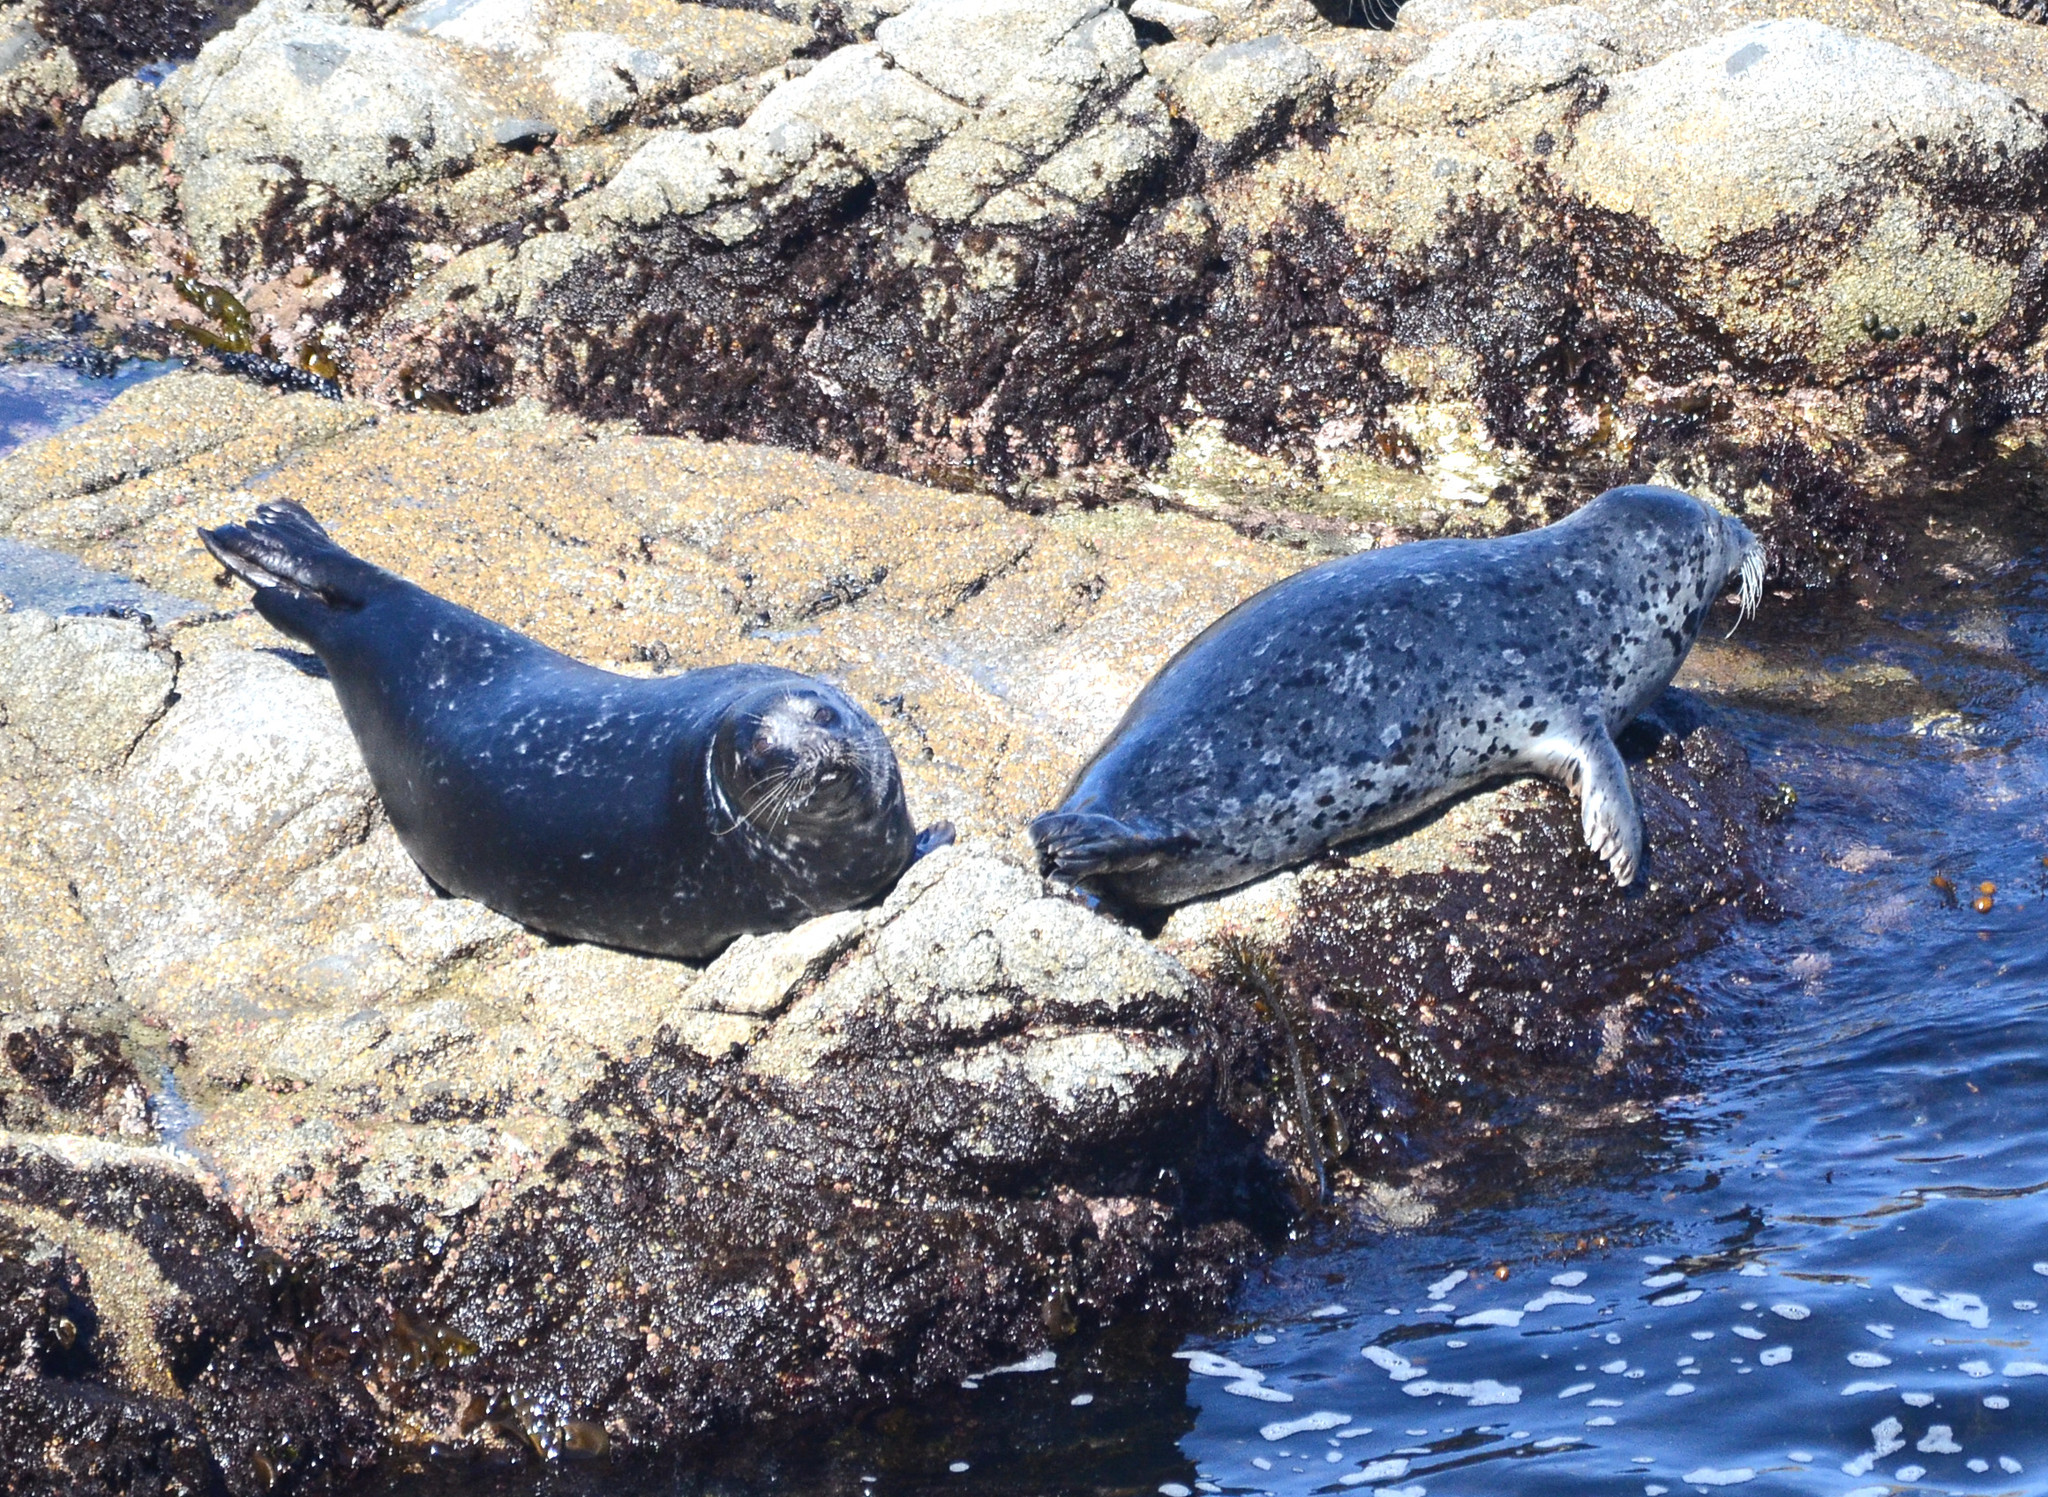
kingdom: Animalia
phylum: Chordata
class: Mammalia
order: Carnivora
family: Phocidae
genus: Phoca
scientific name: Phoca vitulina
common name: Harbor seal
